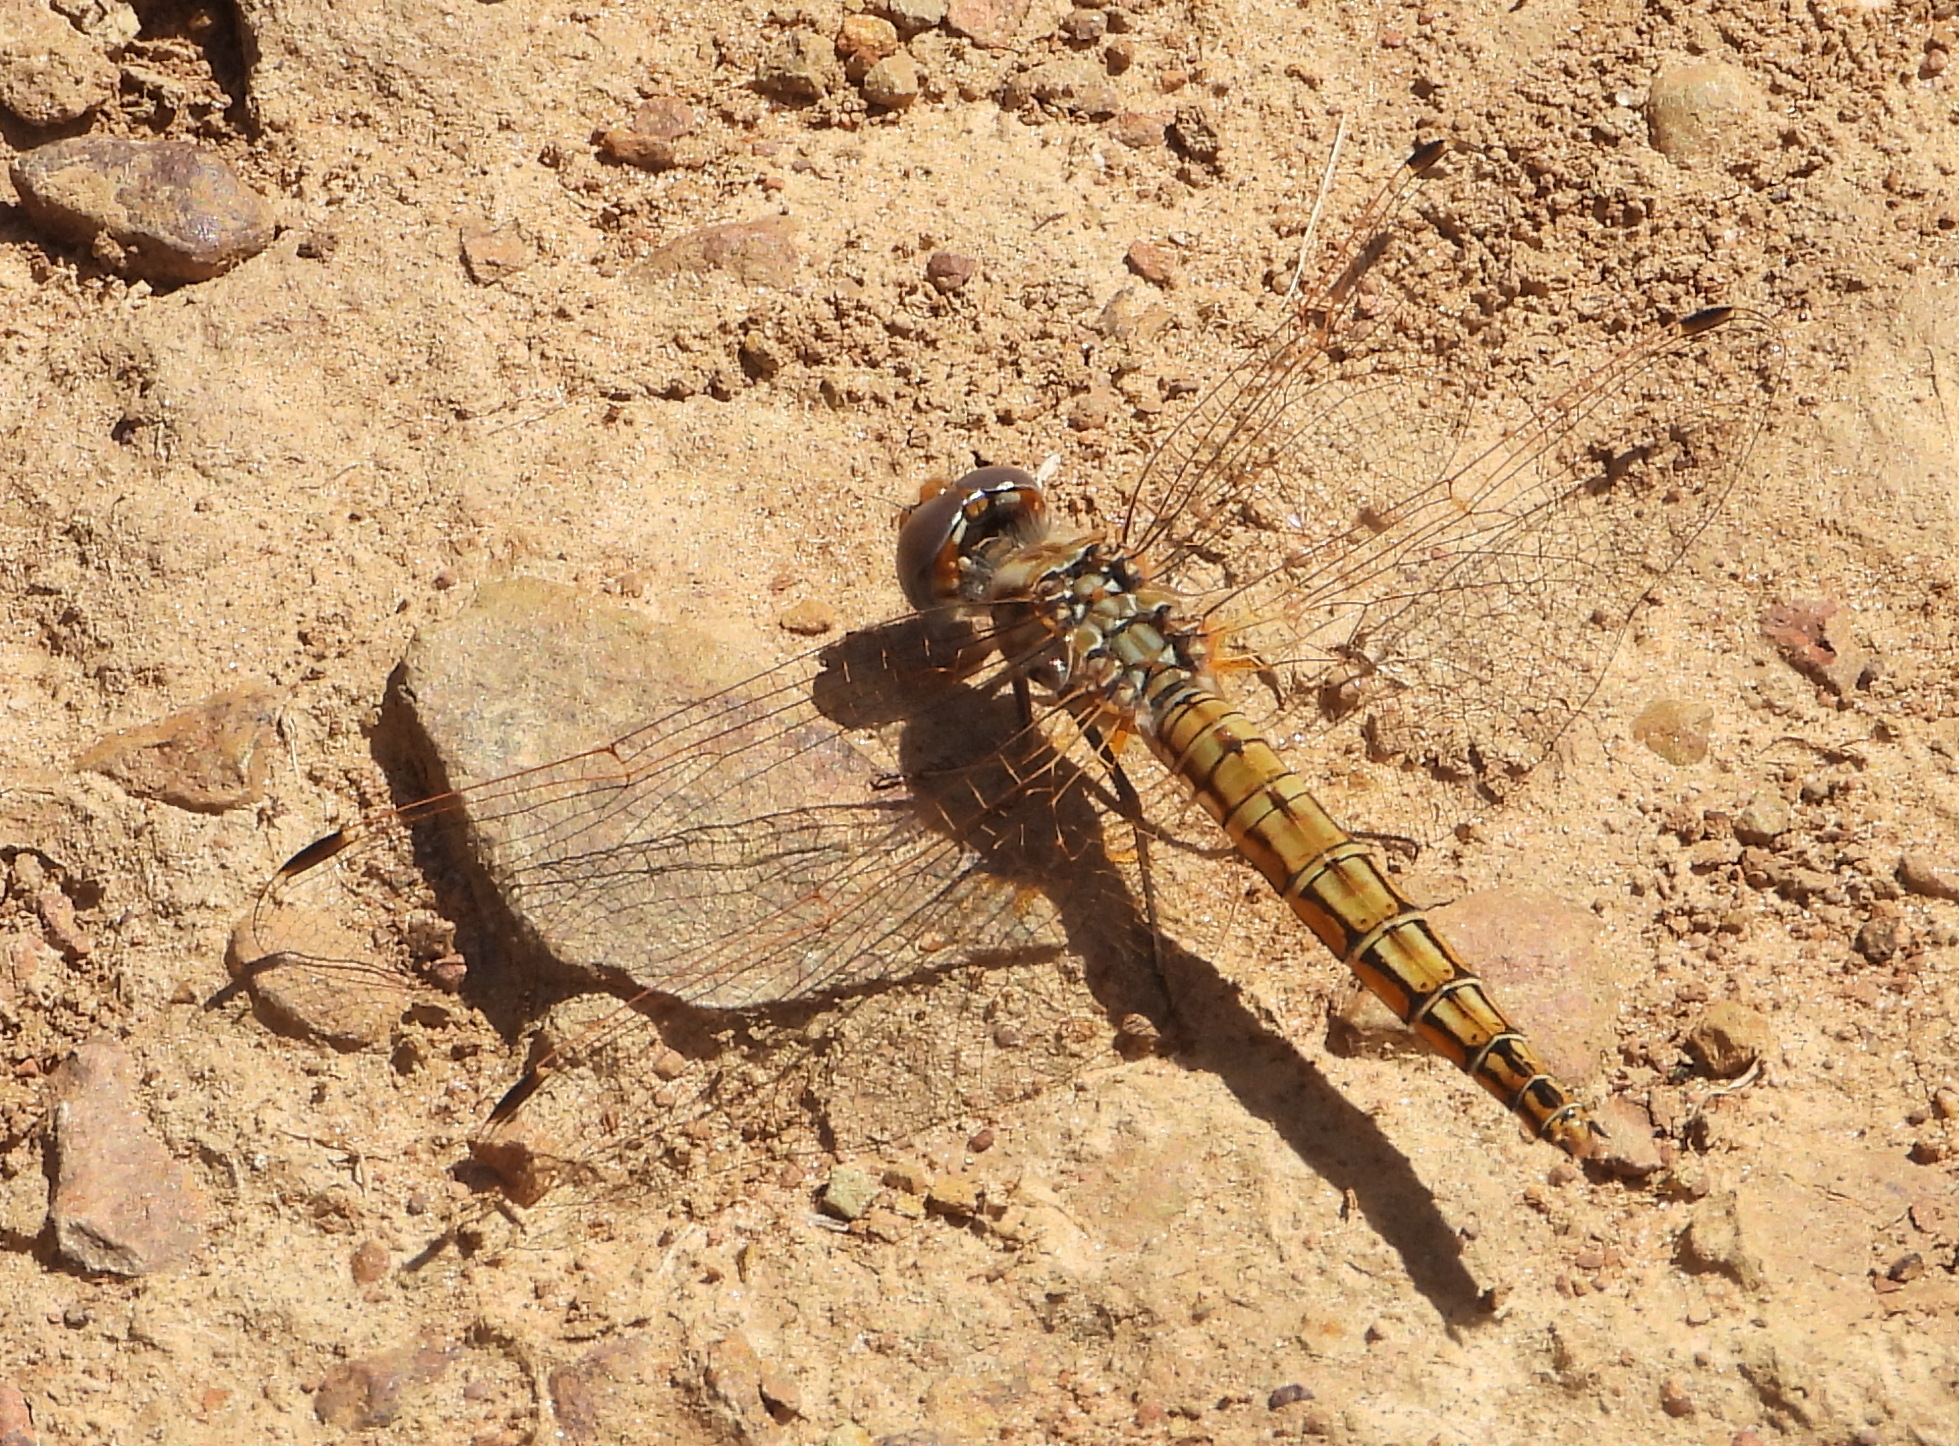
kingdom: Animalia
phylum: Arthropoda
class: Insecta
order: Odonata
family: Libellulidae
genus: Trithemis
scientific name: Trithemis kirbyi
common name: Kirby's dropwing
